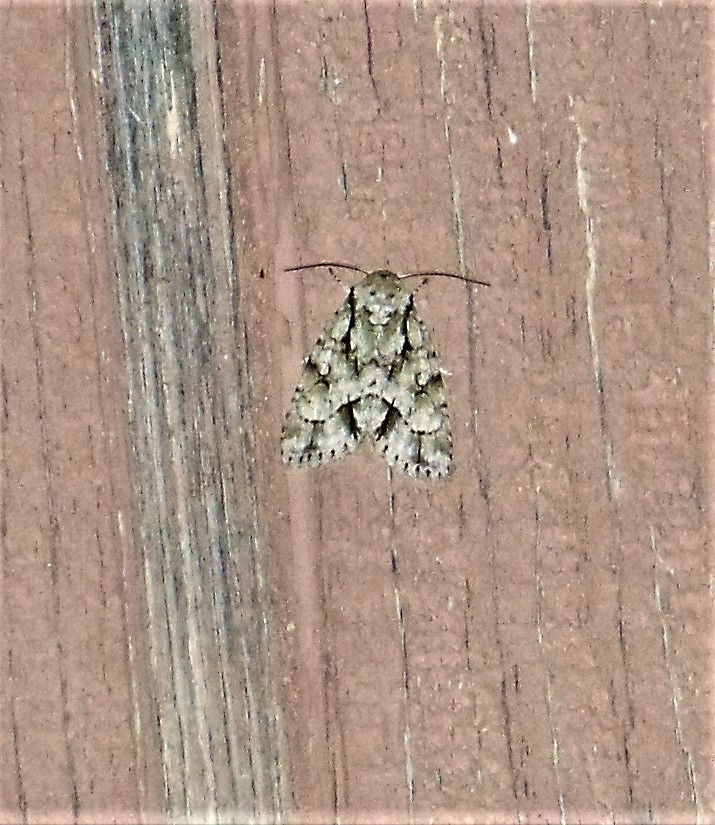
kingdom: Animalia
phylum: Arthropoda
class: Insecta
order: Lepidoptera
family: Noctuidae
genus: Acronicta
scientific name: Acronicta vinnula
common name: Delightful dagger
